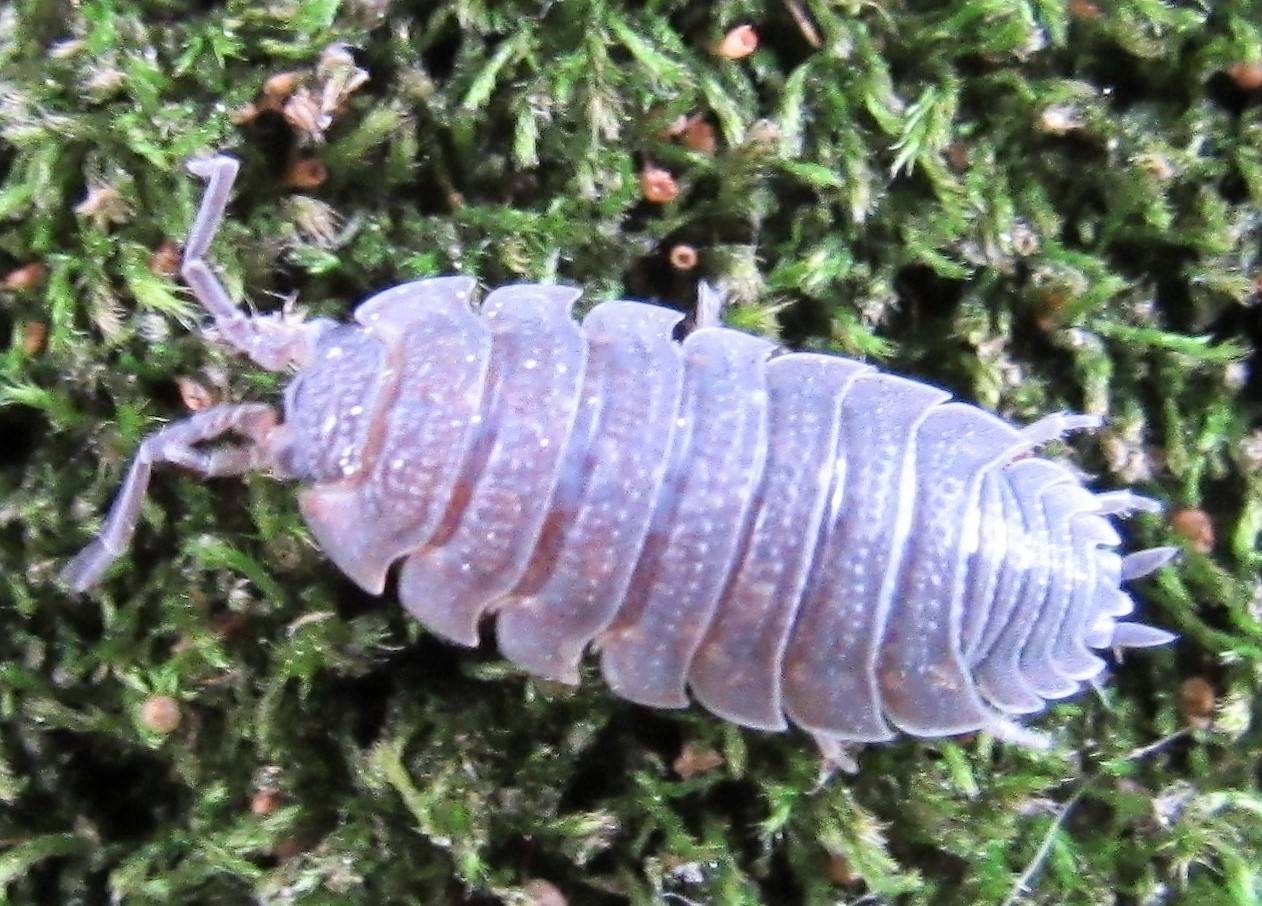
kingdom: Animalia
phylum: Arthropoda
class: Malacostraca
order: Isopoda
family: Porcellionidae
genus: Porcellio
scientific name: Porcellio scaber
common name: Common rough woodlouse
